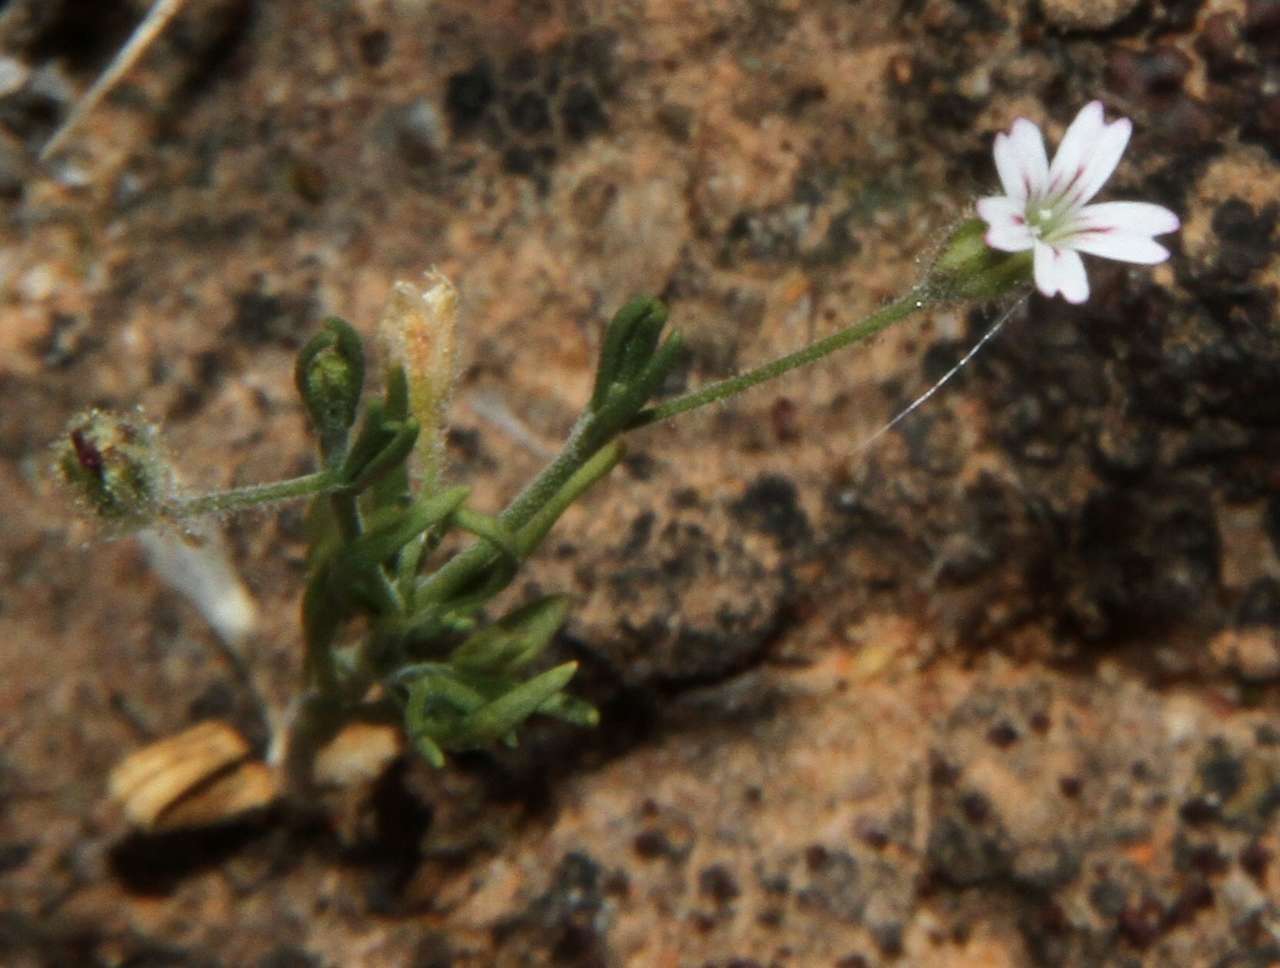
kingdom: Plantae
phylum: Tracheophyta
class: Magnoliopsida
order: Caryophyllales
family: Caryophyllaceae
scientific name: Caryophyllaceae
